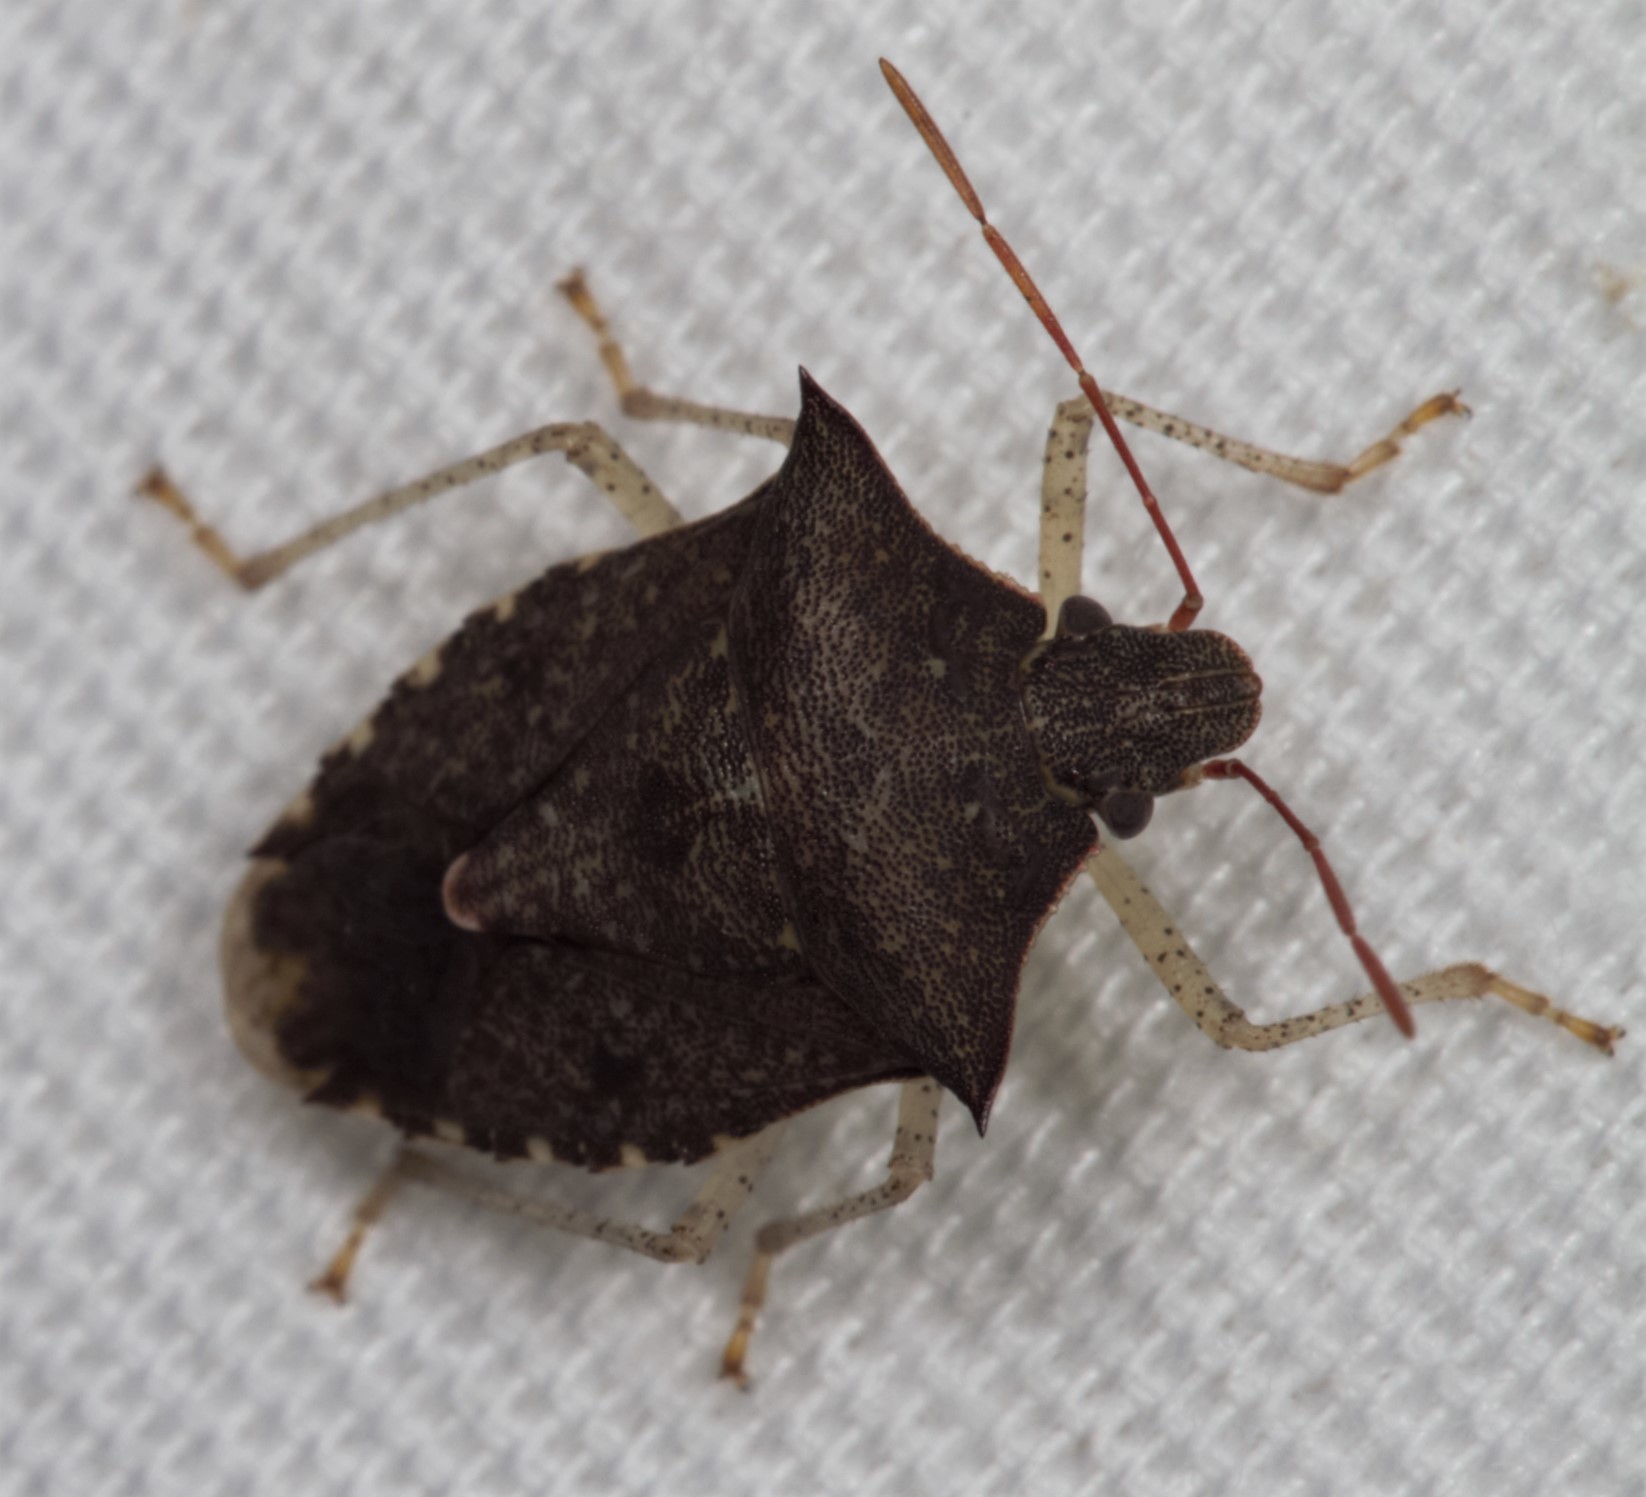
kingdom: Animalia
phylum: Arthropoda
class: Insecta
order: Hemiptera
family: Pentatomidae
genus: Euschistus
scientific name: Euschistus tristigmus
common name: Dusky stink bug
